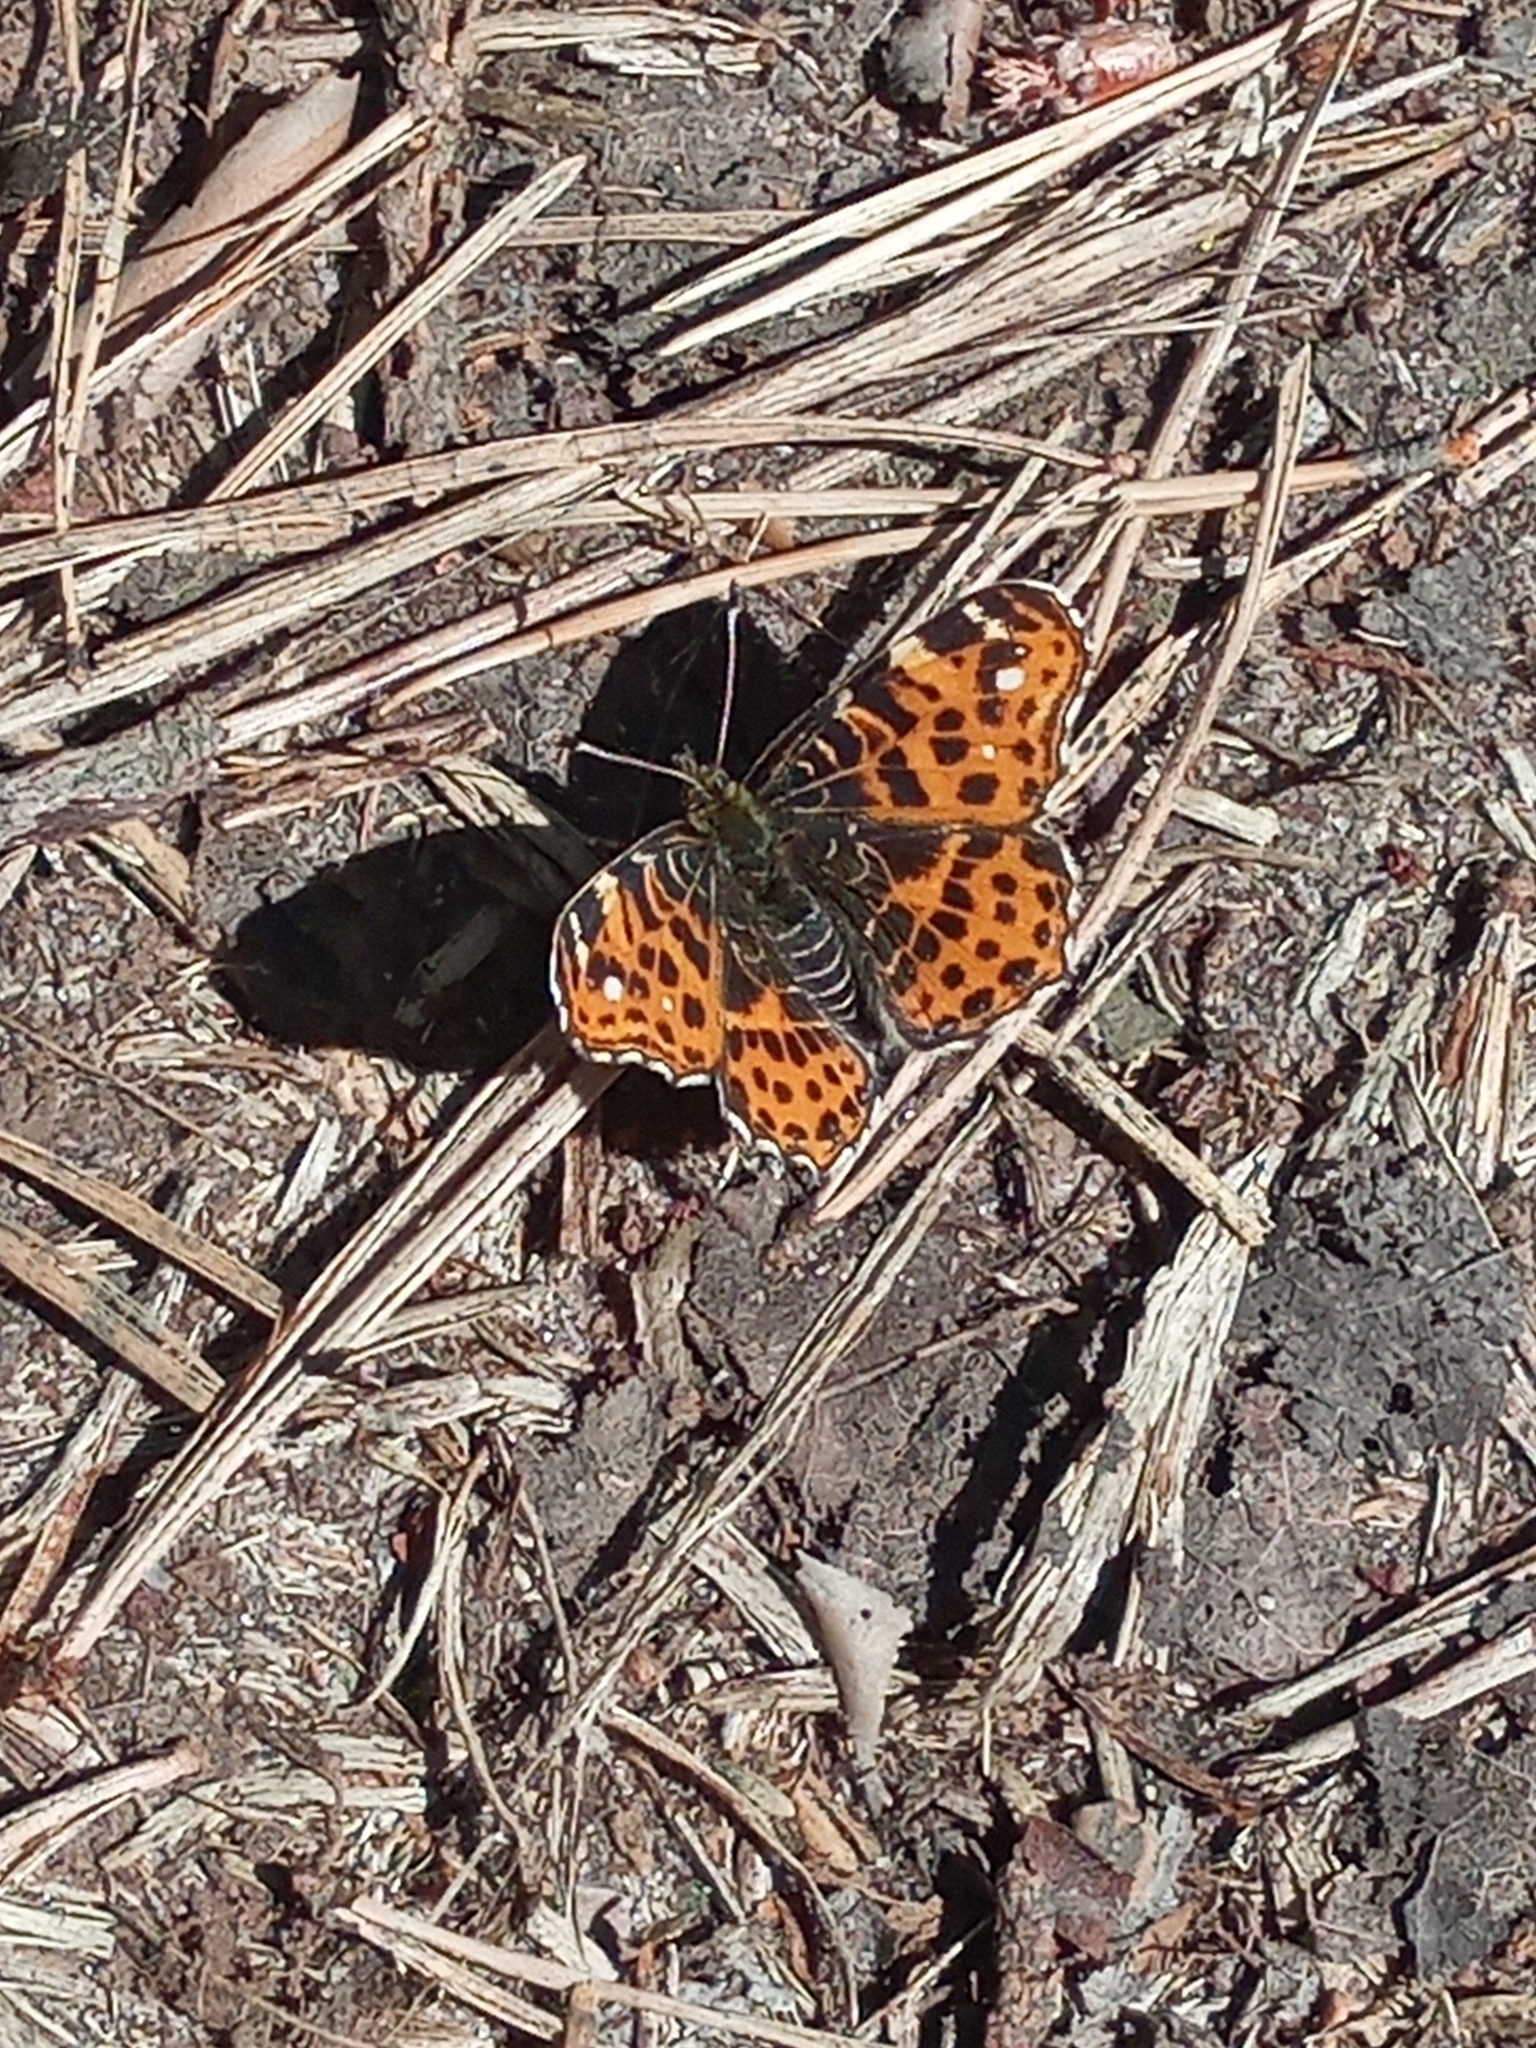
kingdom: Animalia
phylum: Arthropoda
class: Insecta
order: Lepidoptera
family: Nymphalidae
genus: Araschnia
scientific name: Araschnia levana
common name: Map butterfly
